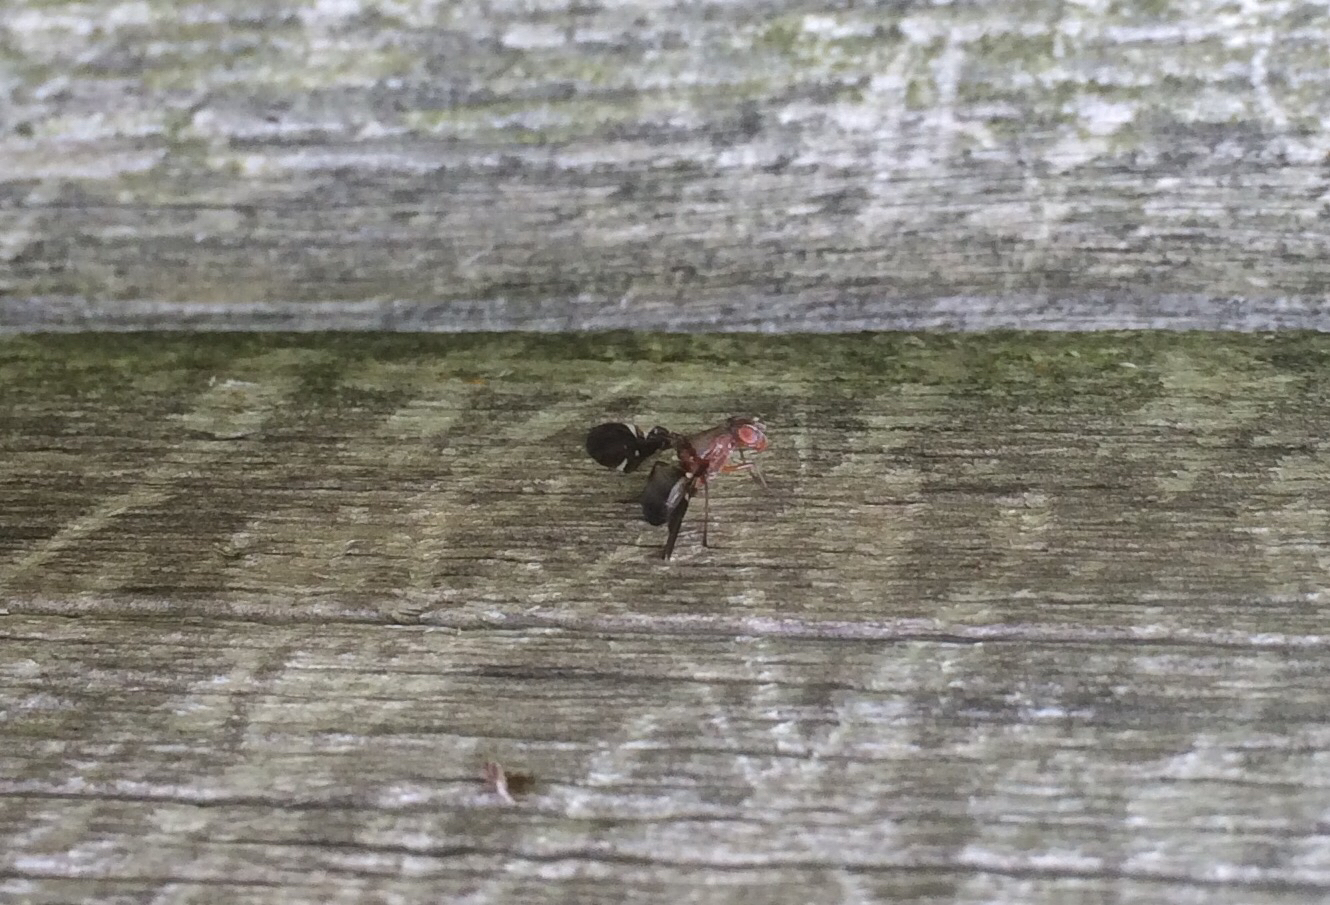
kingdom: Animalia
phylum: Arthropoda
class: Insecta
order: Diptera
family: Ulidiidae
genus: Delphinia
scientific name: Delphinia picta
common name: Common picture-winged fly
